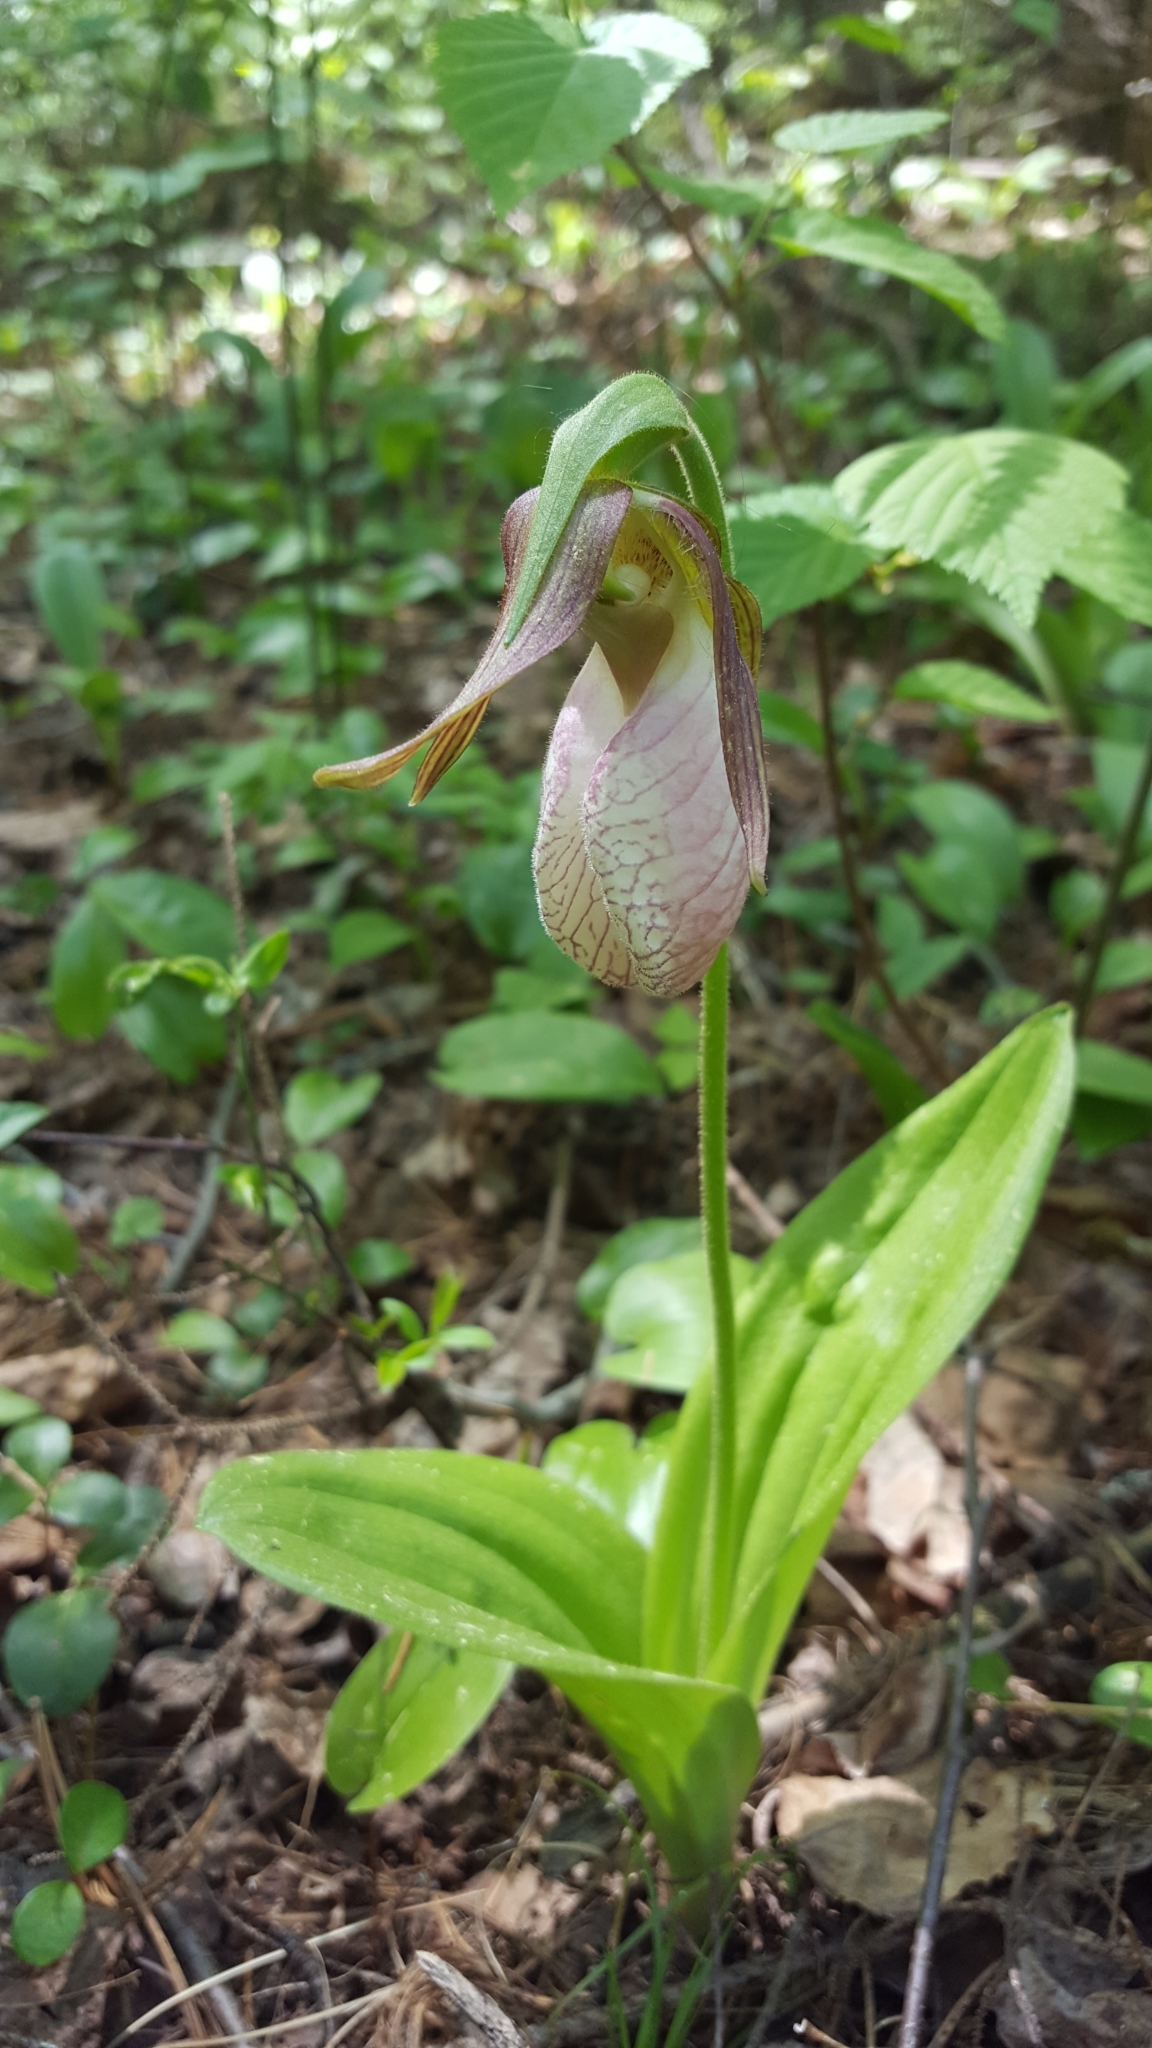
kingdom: Plantae
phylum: Tracheophyta
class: Liliopsida
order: Asparagales
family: Orchidaceae
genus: Cypripedium
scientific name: Cypripedium acaule
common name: Pink lady's-slipper
